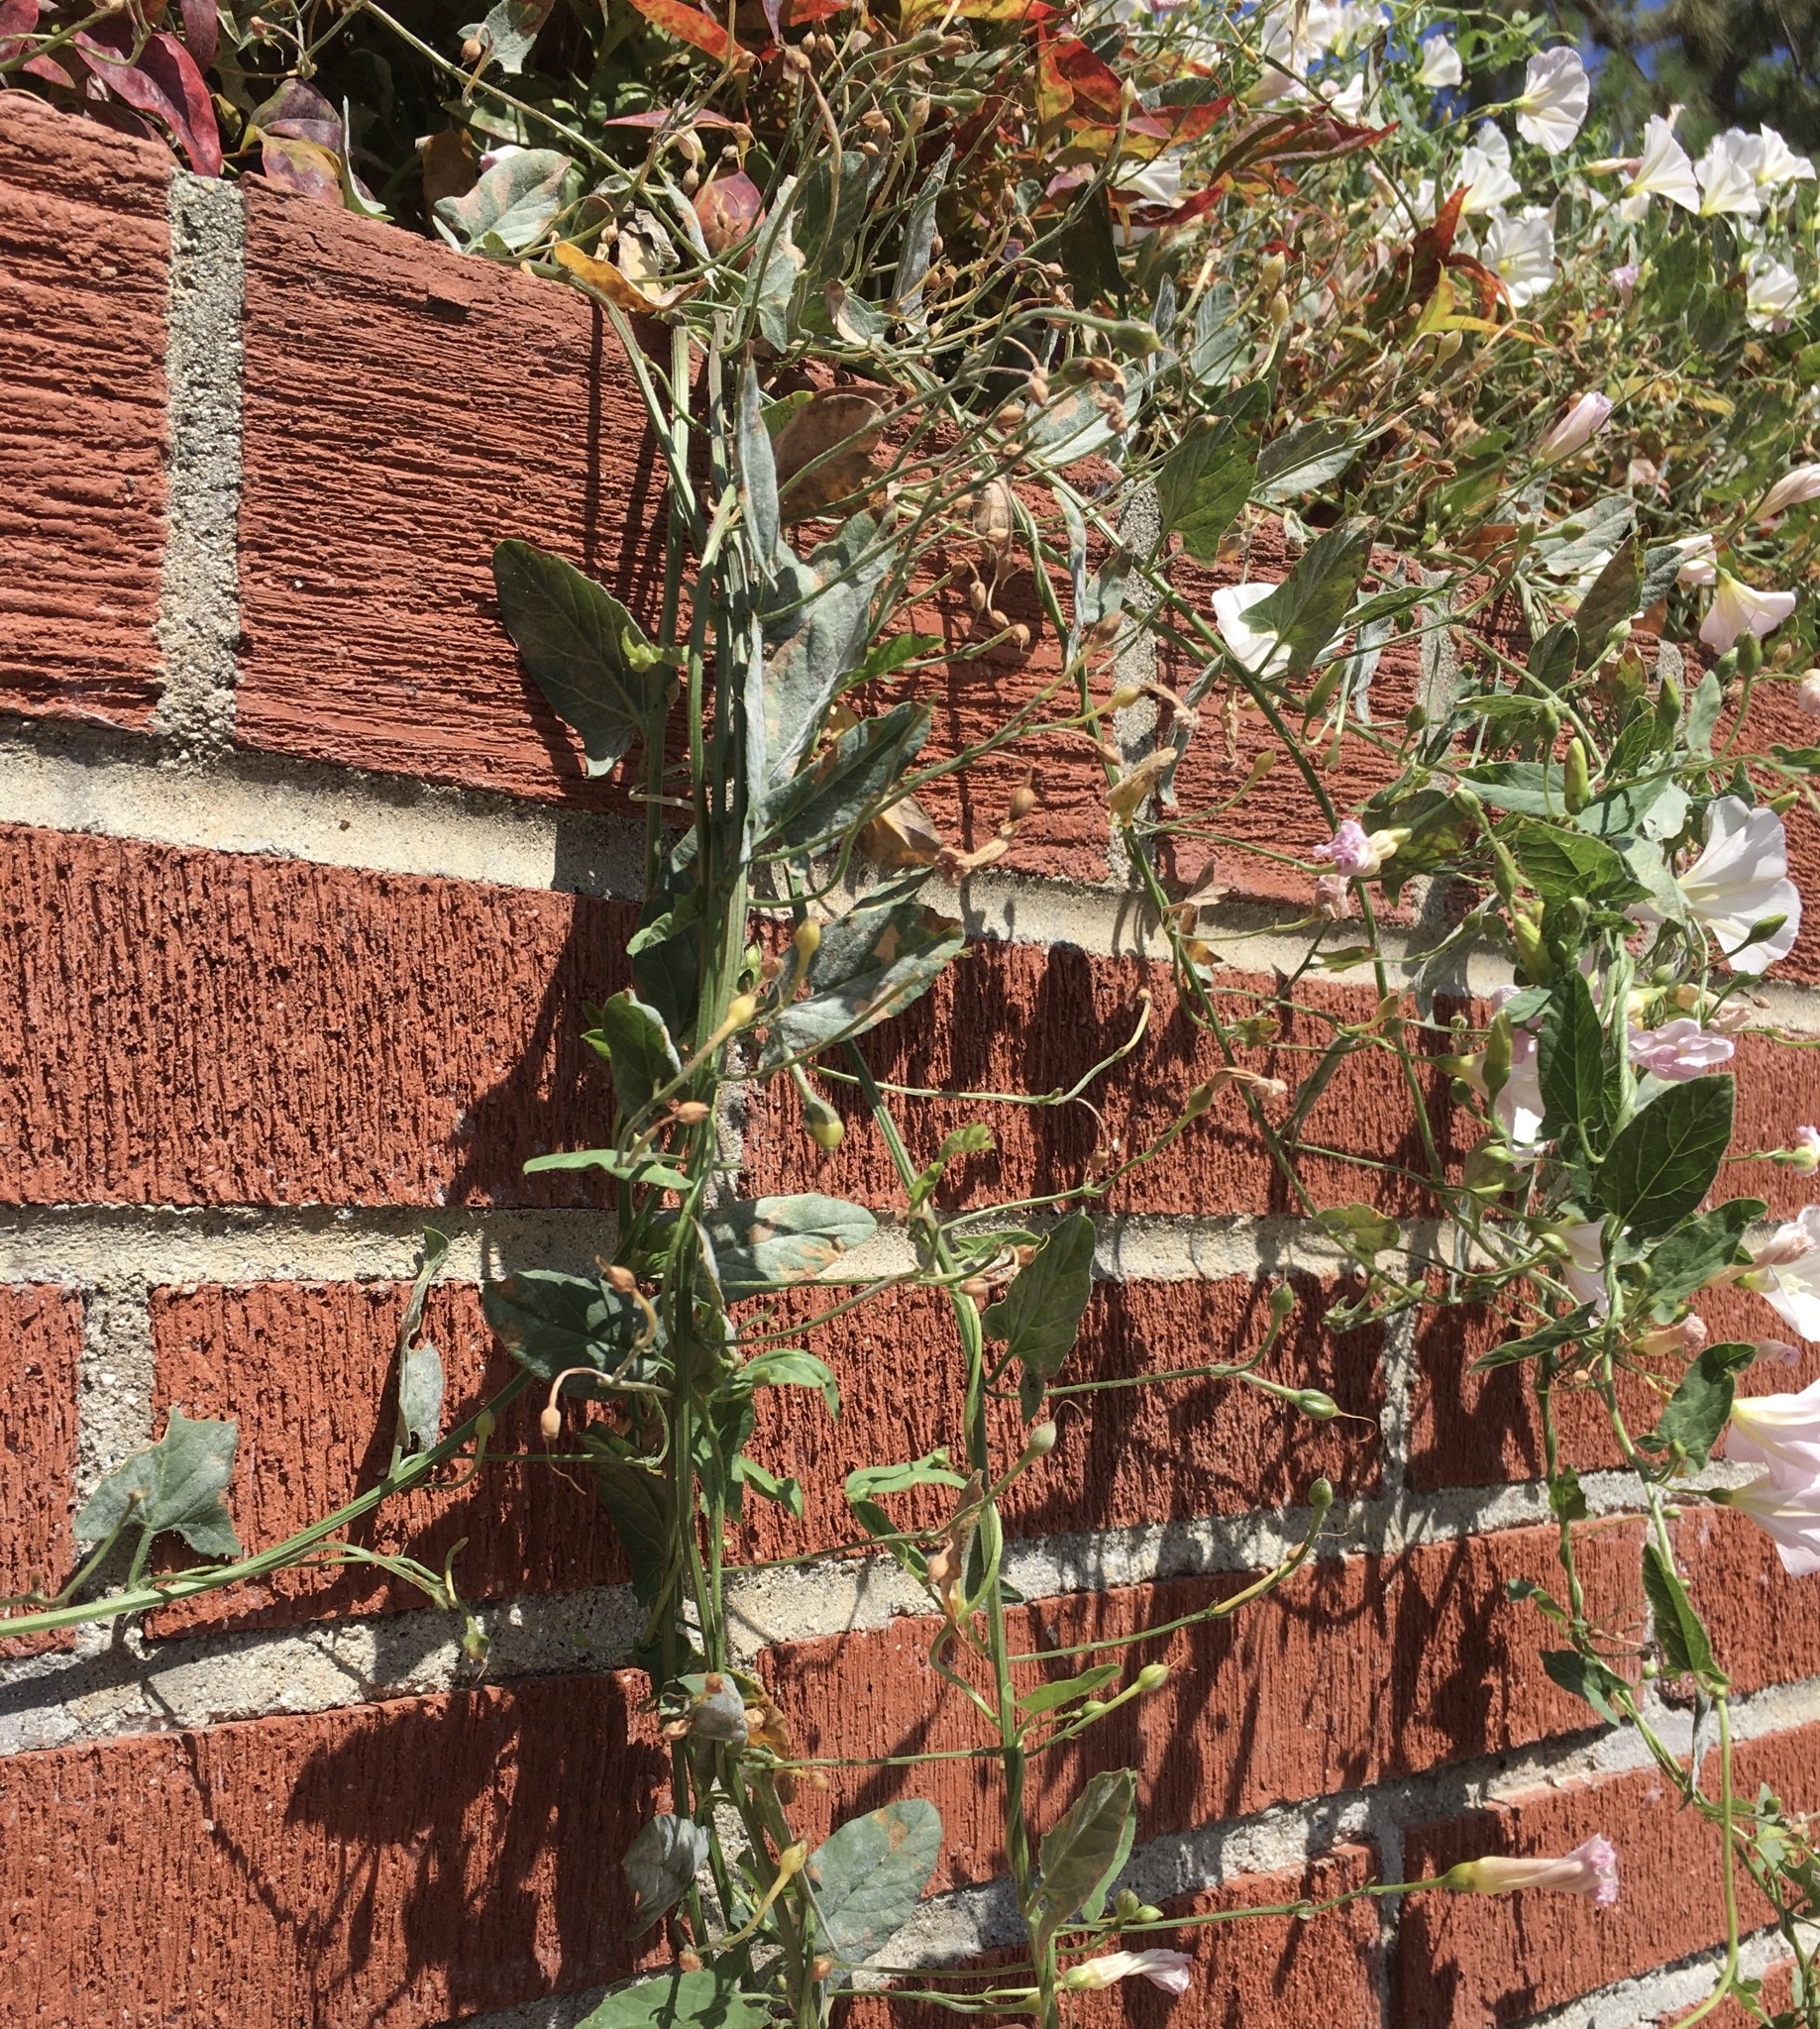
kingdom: Plantae
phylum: Tracheophyta
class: Magnoliopsida
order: Solanales
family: Convolvulaceae
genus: Convolvulus
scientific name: Convolvulus arvensis
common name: Field bindweed
